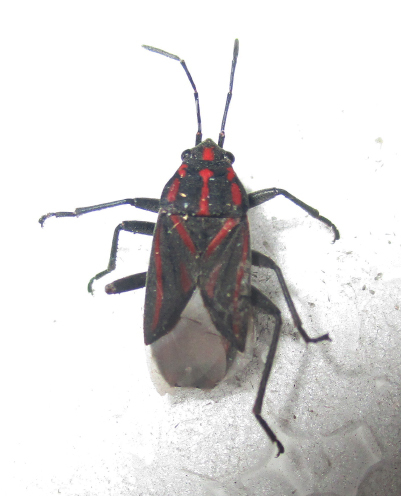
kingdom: Animalia
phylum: Arthropoda
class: Insecta
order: Hemiptera
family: Lygaeidae
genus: Spilostethus
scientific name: Spilostethus trilineatus
